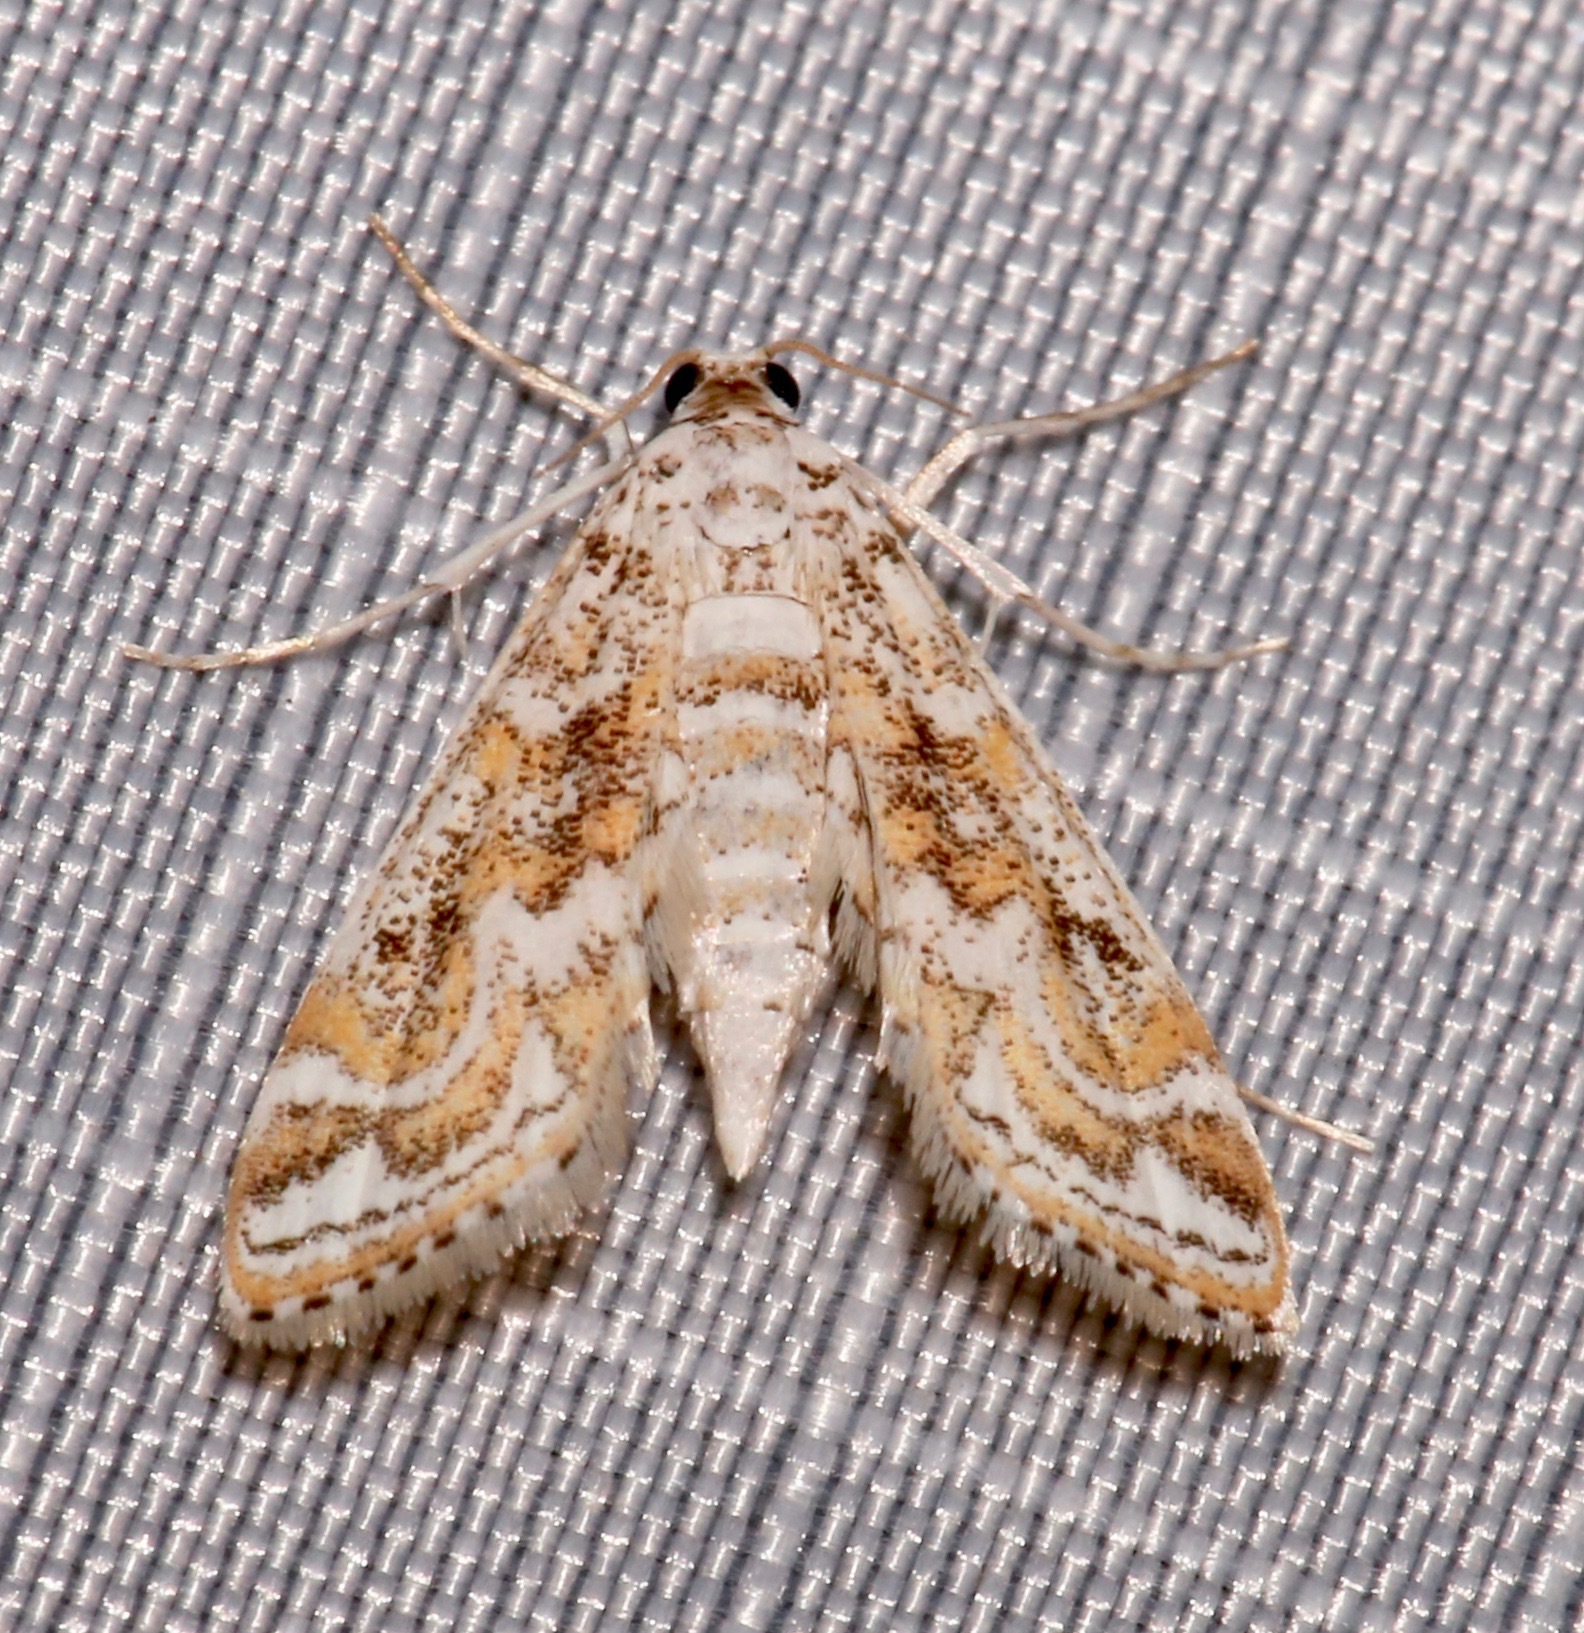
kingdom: Animalia
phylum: Arthropoda
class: Insecta
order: Lepidoptera
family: Crambidae
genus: Parapoynx
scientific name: Parapoynx diminutalis
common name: Hydrilla leafcutter
